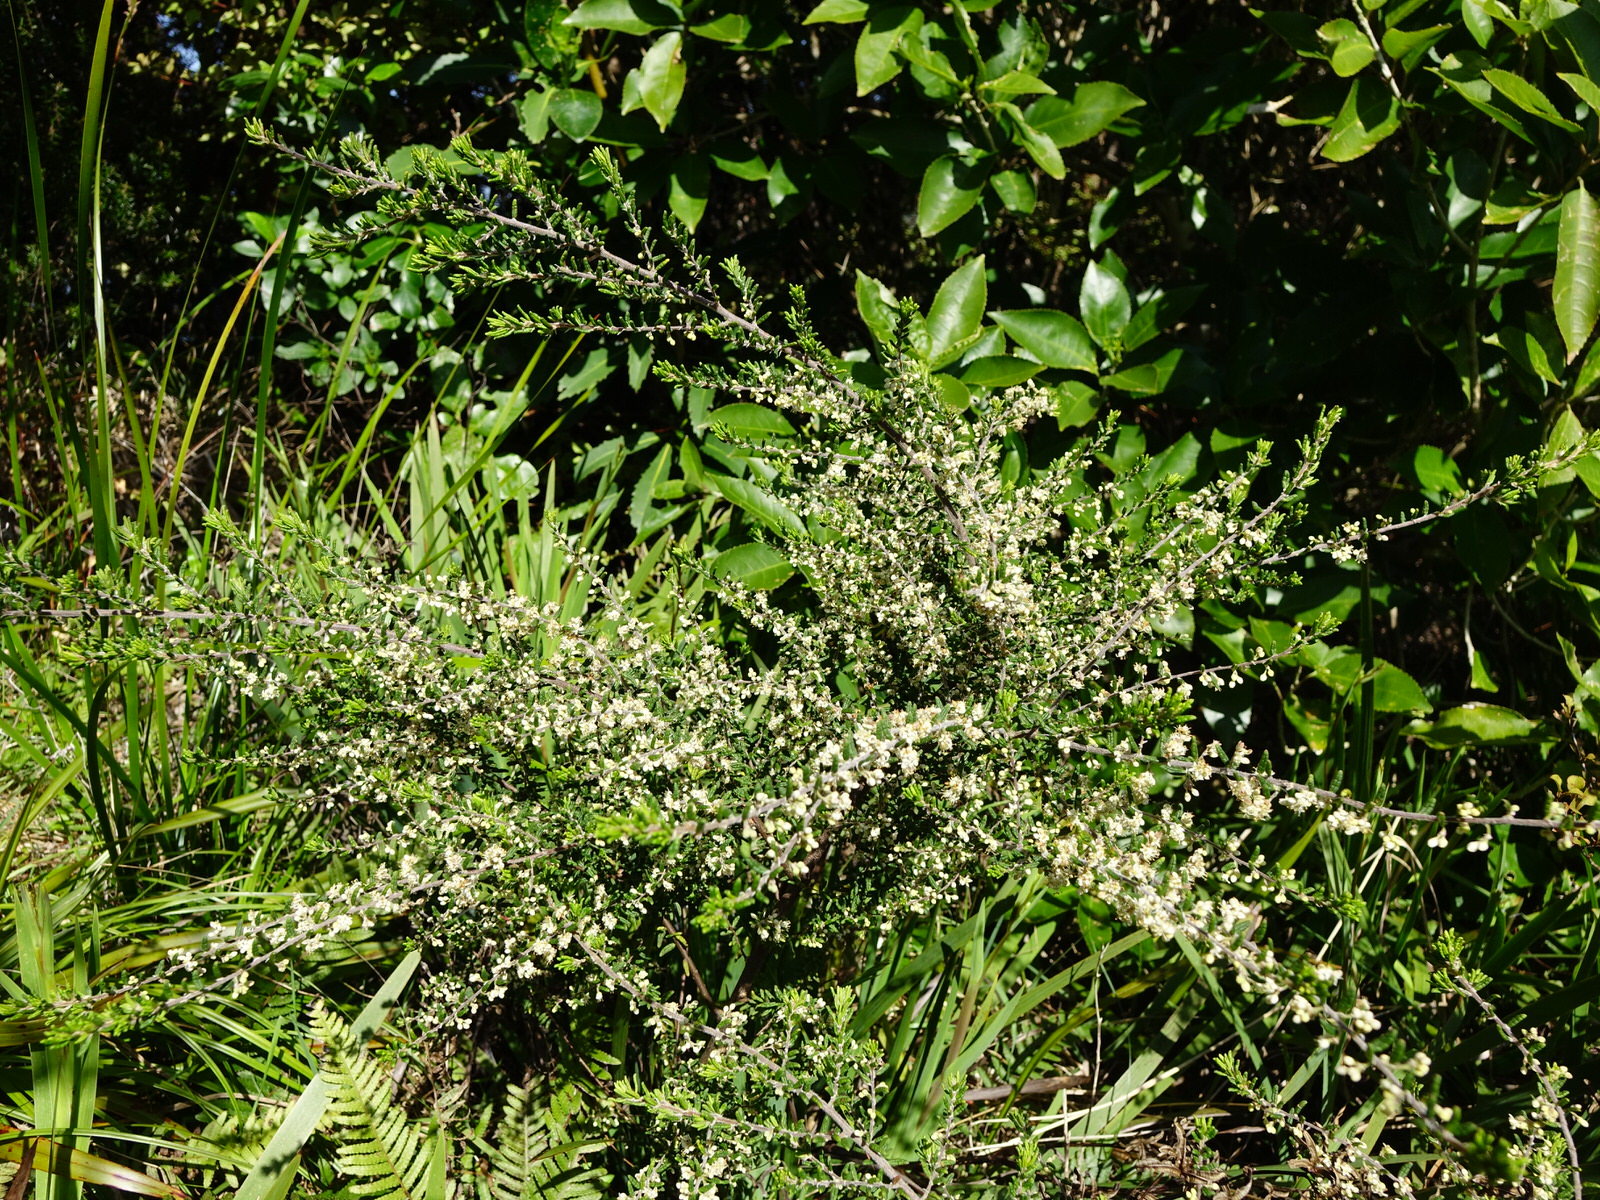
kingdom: Plantae
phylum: Tracheophyta
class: Magnoliopsida
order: Rosales
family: Rhamnaceae
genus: Pomaderris
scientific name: Pomaderris amoena
